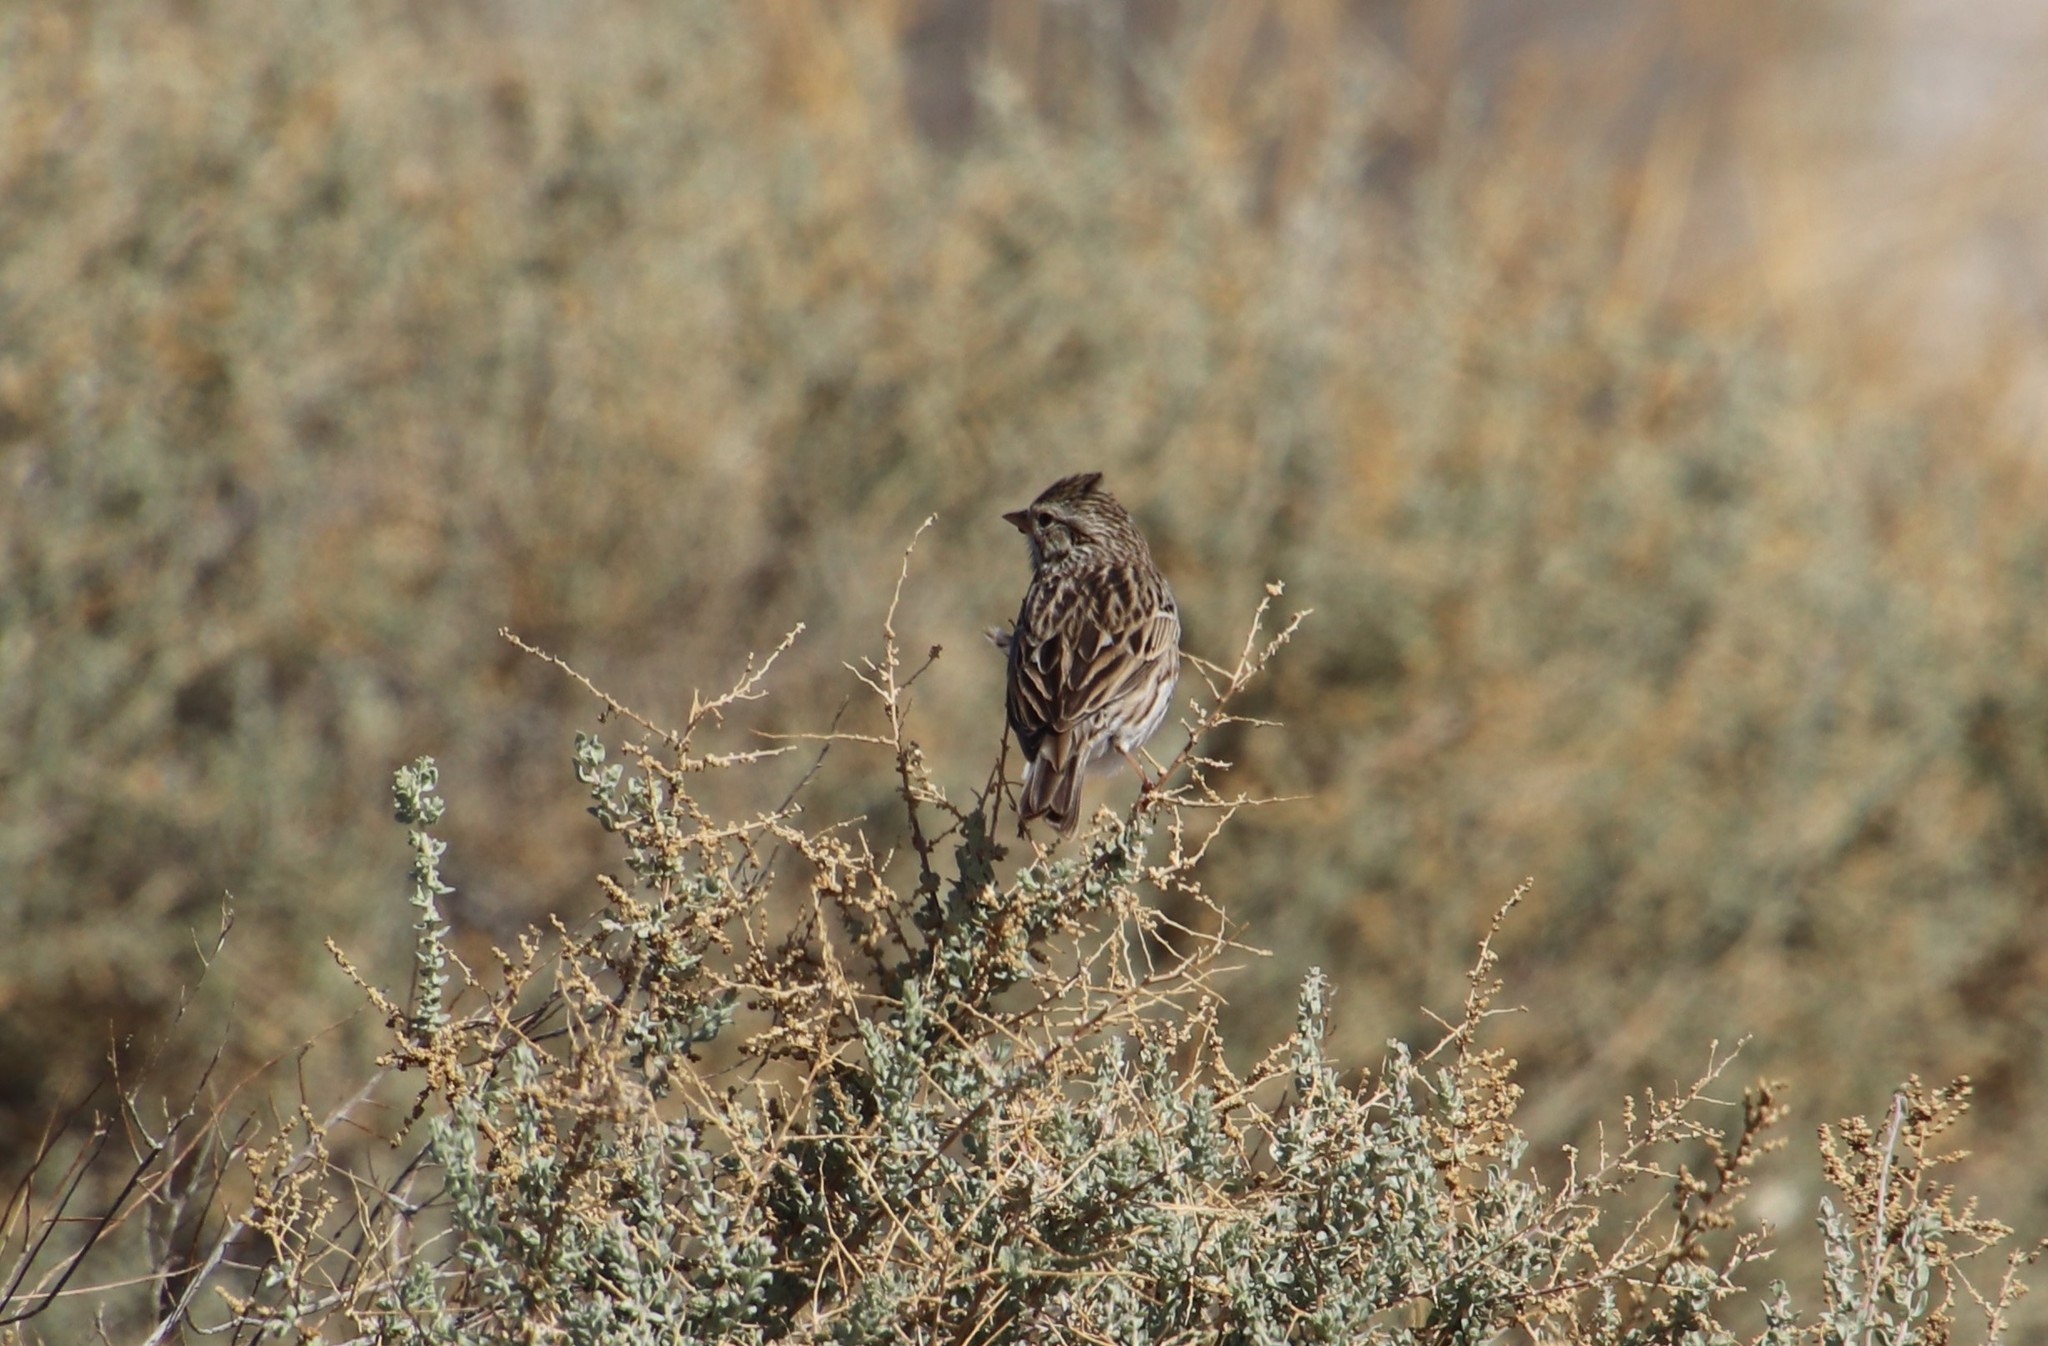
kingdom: Animalia
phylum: Chordata
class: Aves
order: Passeriformes
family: Passerellidae
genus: Passerculus
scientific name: Passerculus sandwichensis
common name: Savannah sparrow
